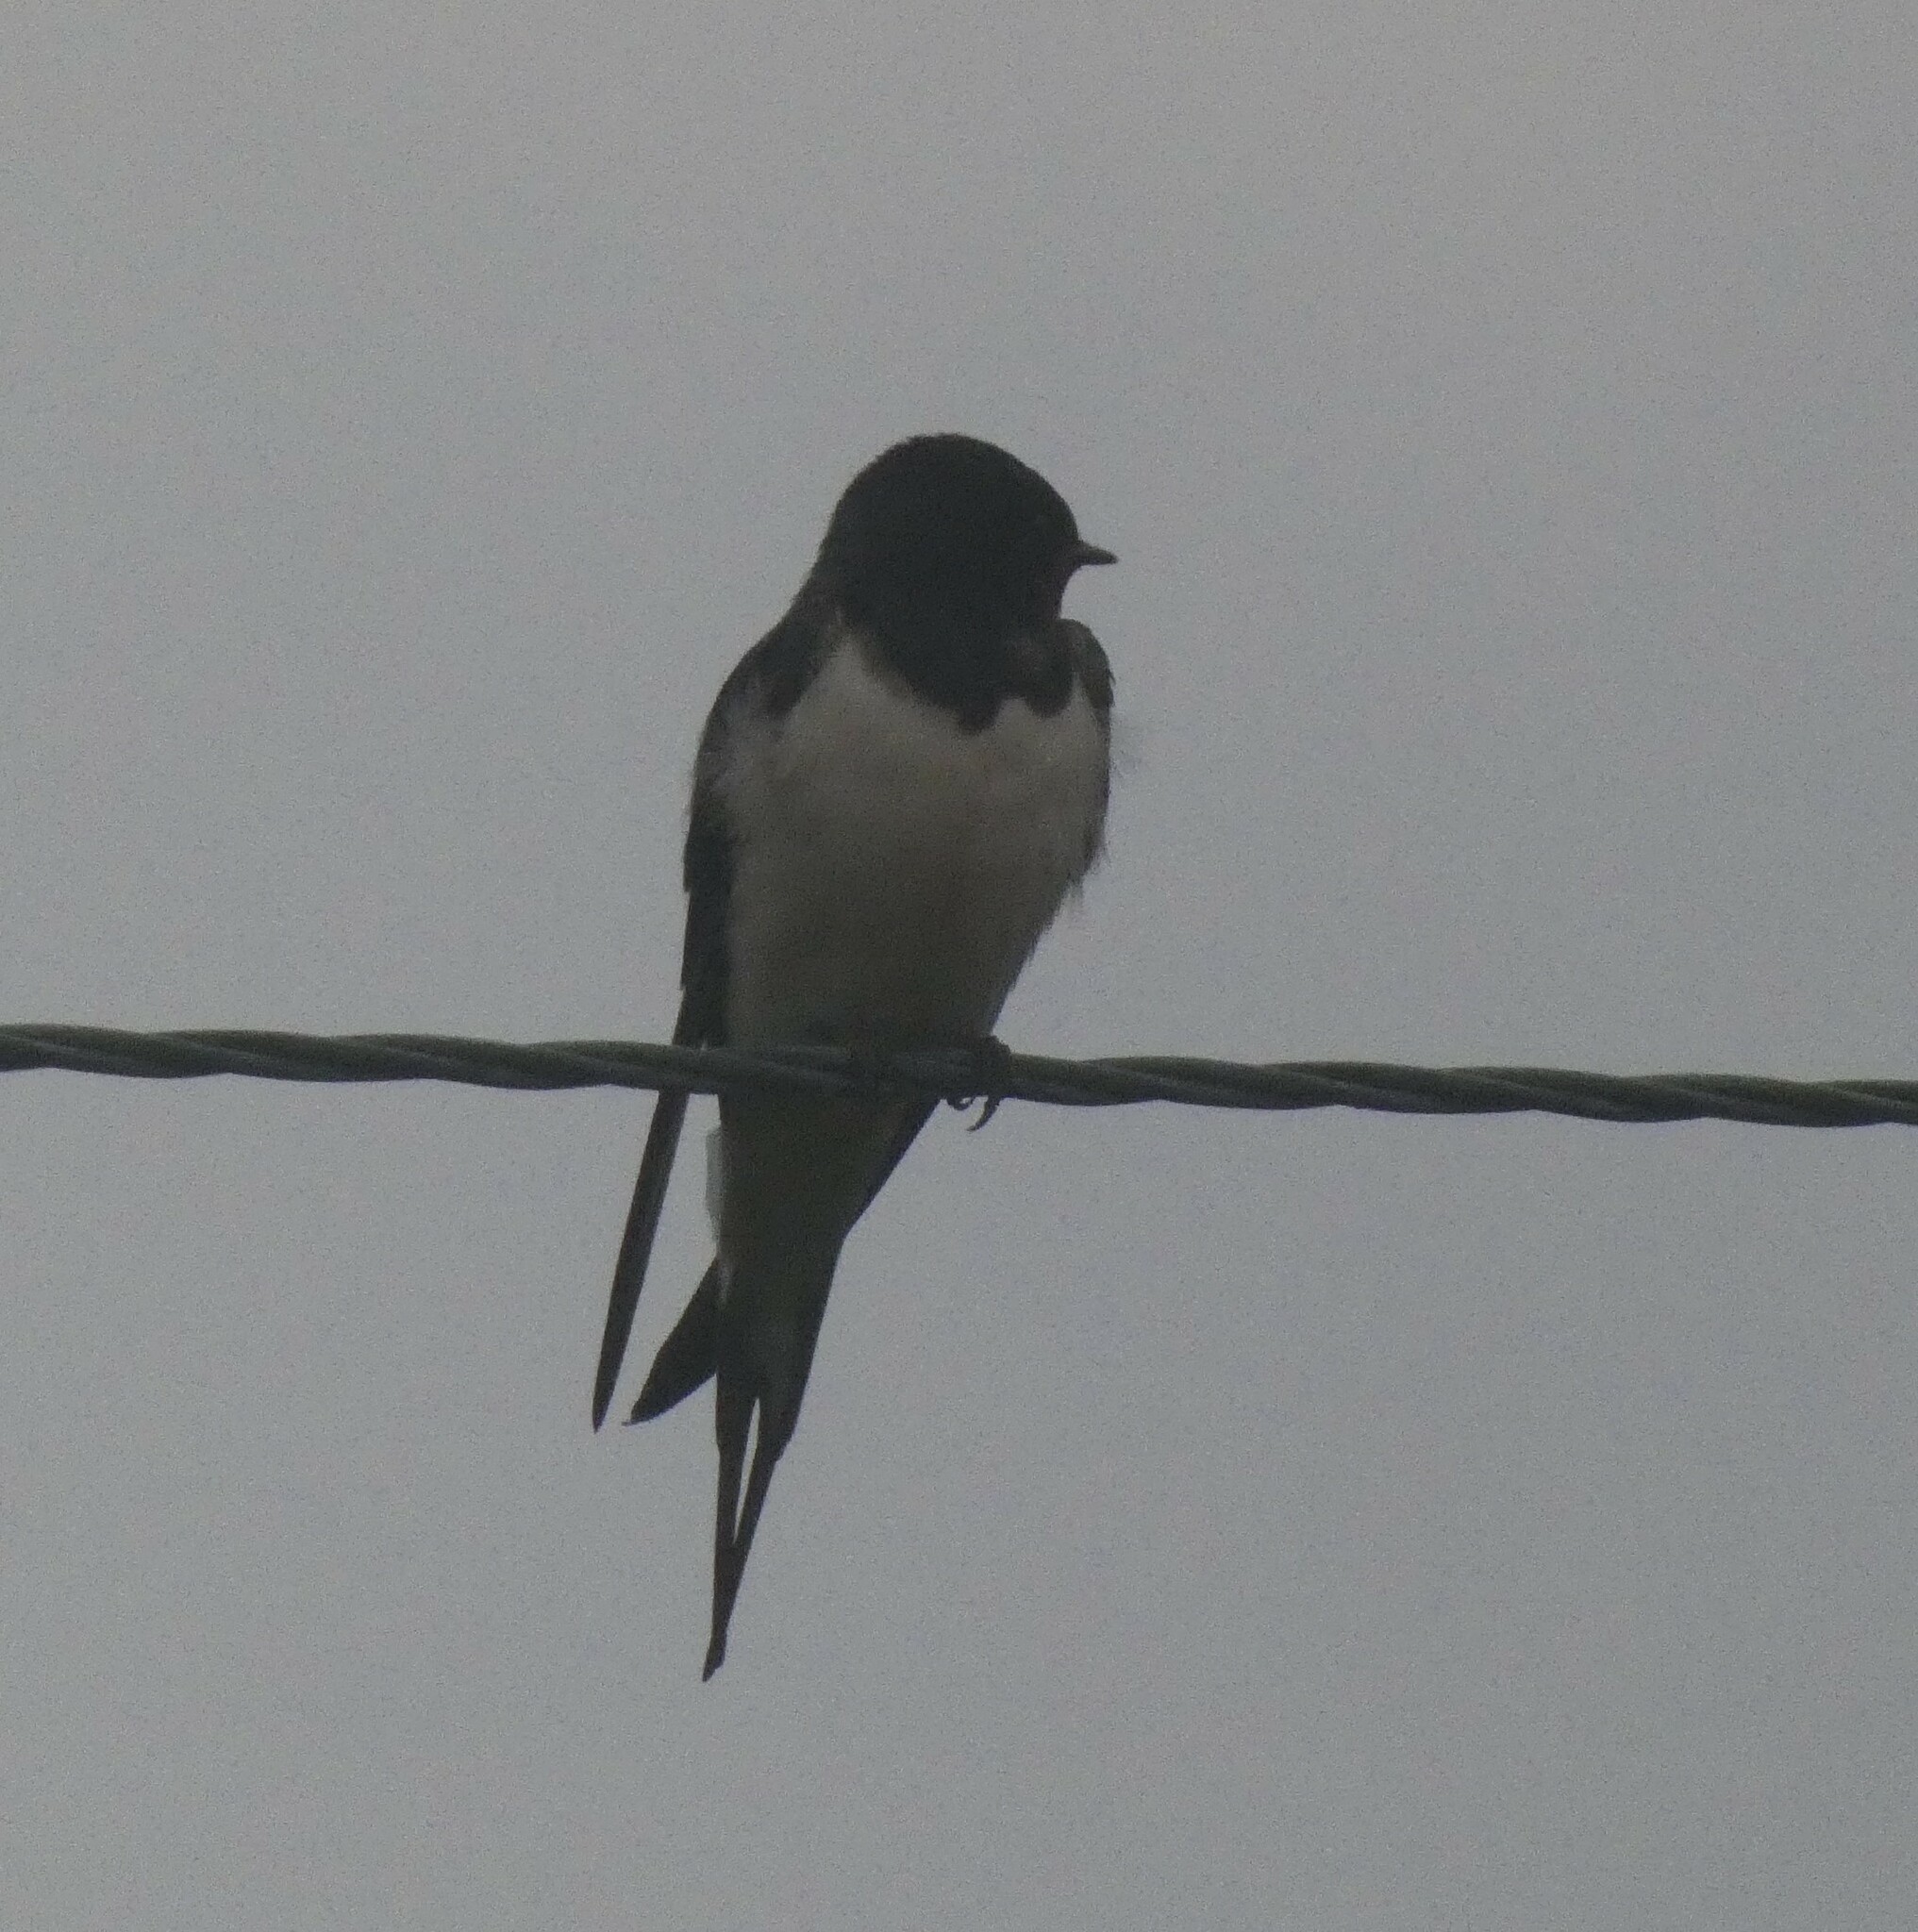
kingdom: Animalia
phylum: Chordata
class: Aves
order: Passeriformes
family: Hirundinidae
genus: Hirundo
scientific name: Hirundo rustica
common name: Barn swallow
